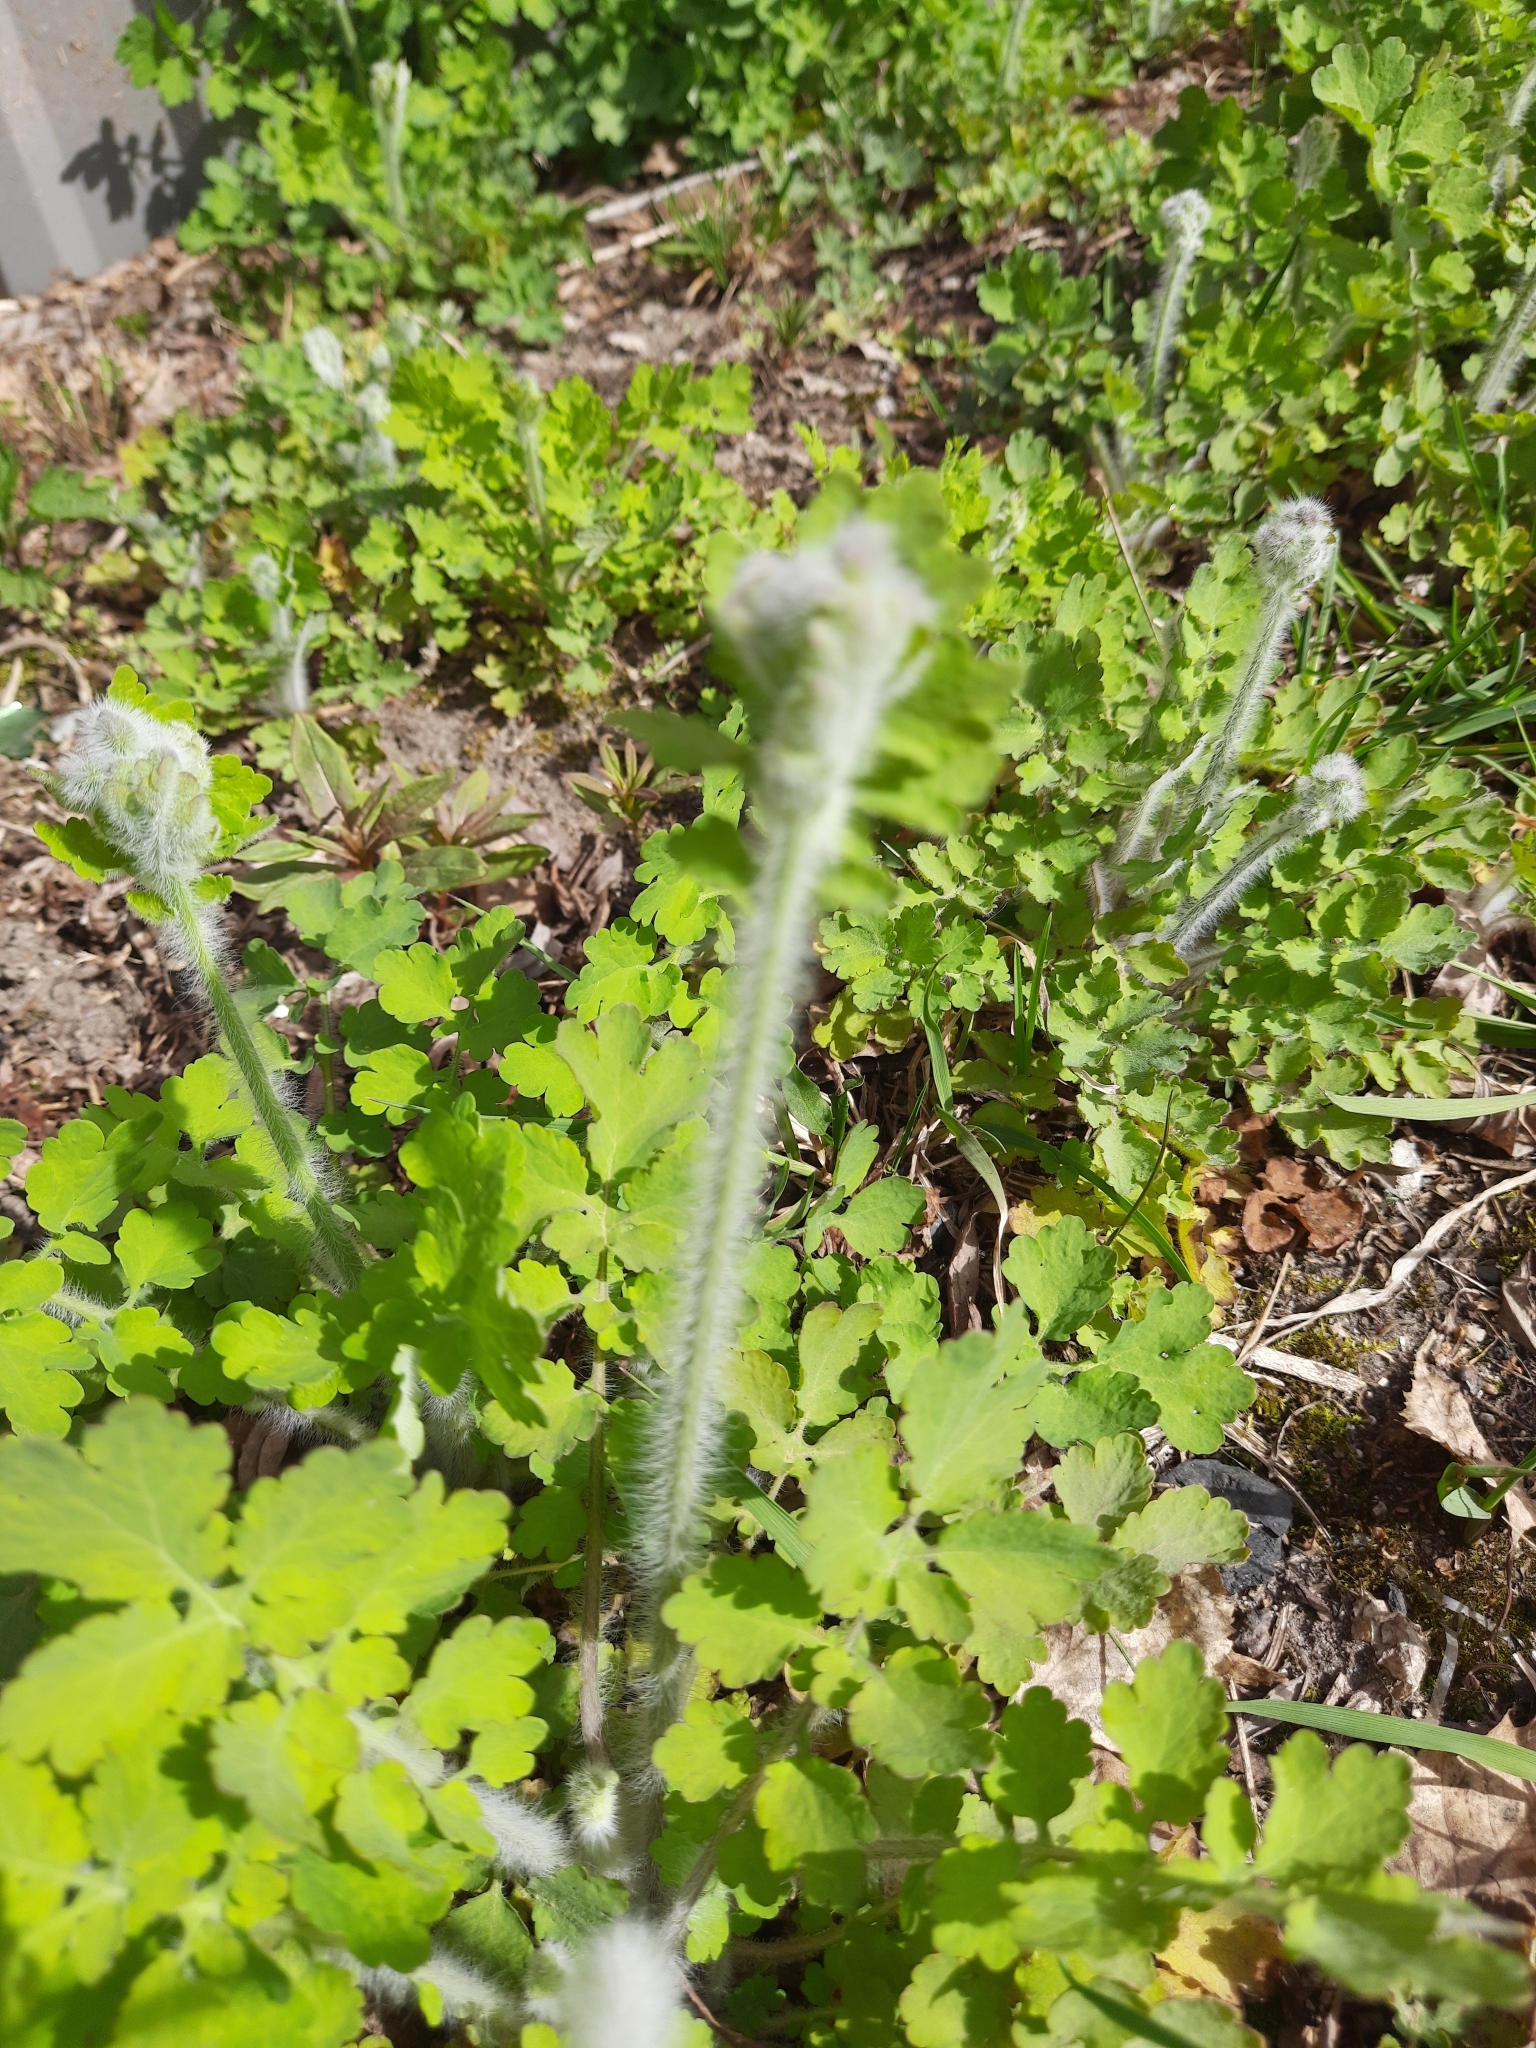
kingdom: Plantae
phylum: Tracheophyta
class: Magnoliopsida
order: Ranunculales
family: Papaveraceae
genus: Chelidonium
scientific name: Chelidonium majus
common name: Greater celandine
